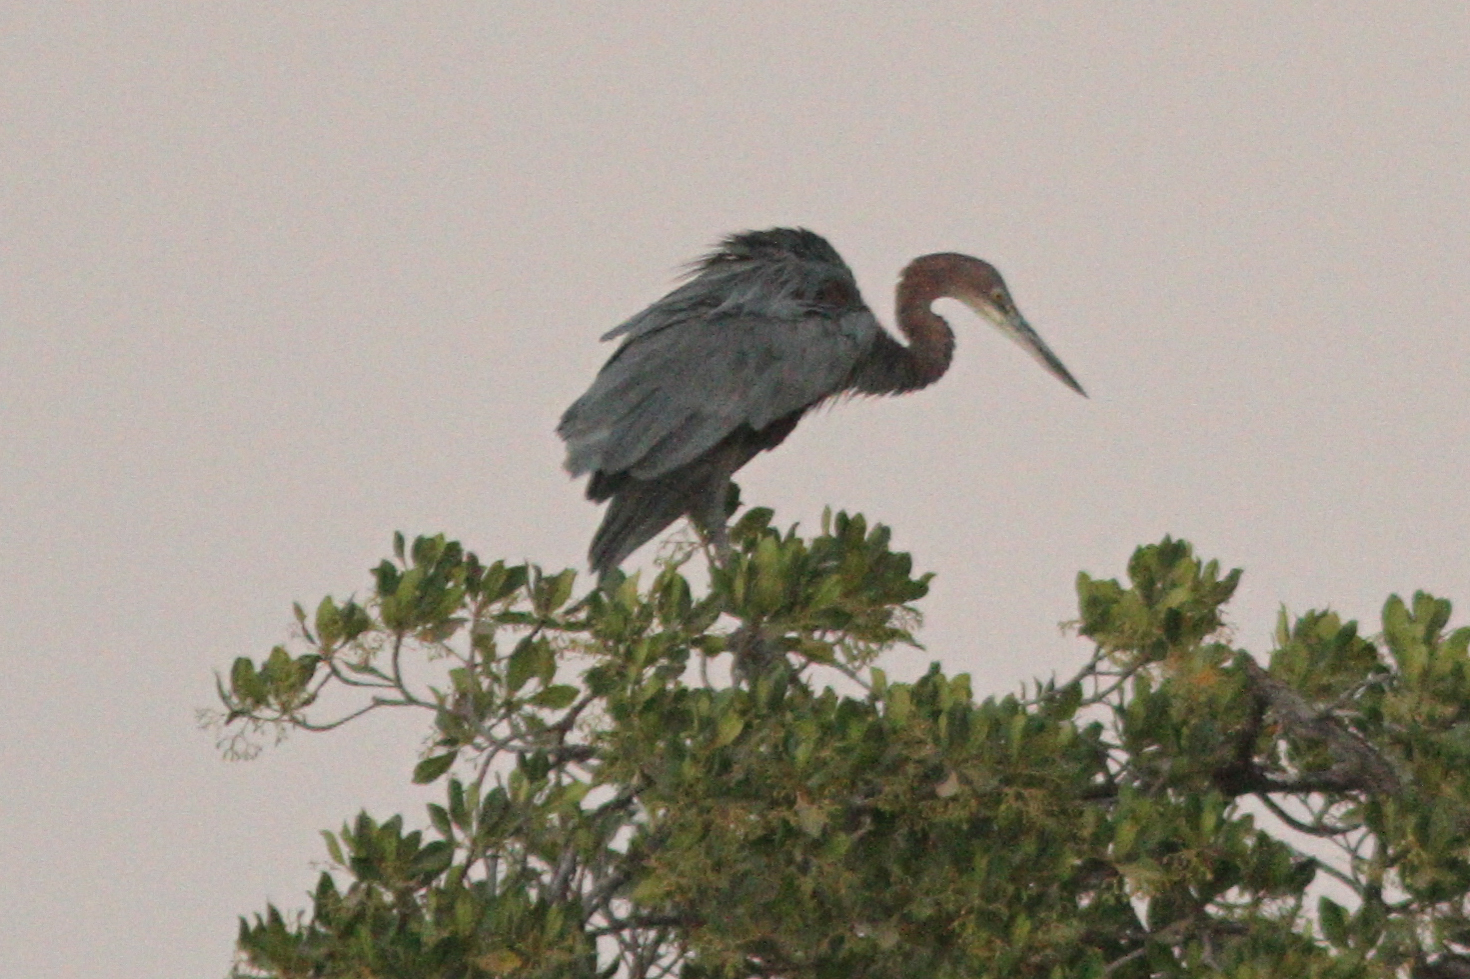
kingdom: Animalia
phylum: Chordata
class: Aves
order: Pelecaniformes
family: Ardeidae
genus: Ardea
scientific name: Ardea goliath
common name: Goliath heron
